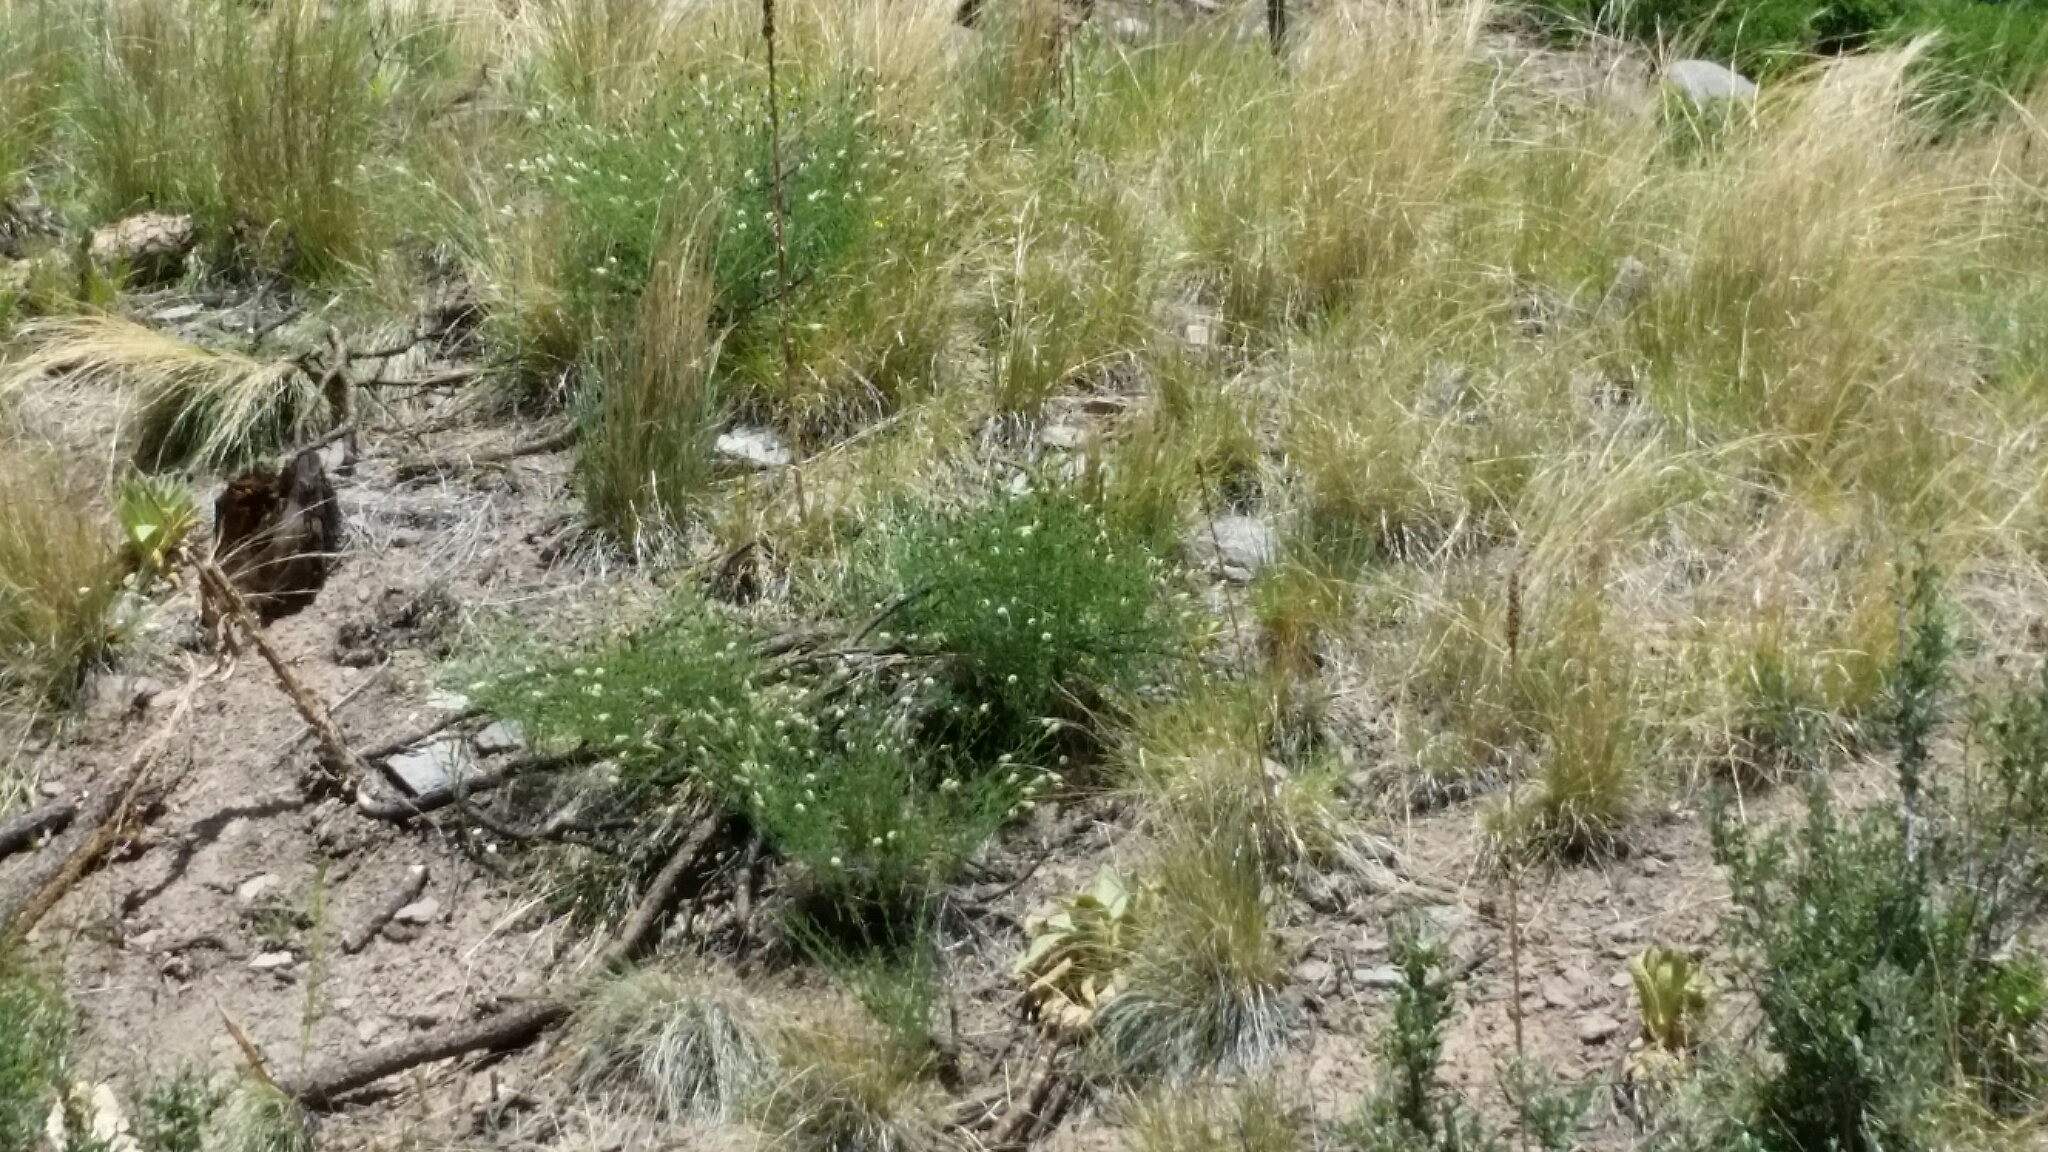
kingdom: Plantae
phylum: Tracheophyta
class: Magnoliopsida
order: Fabales
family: Fabaceae
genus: Dalea
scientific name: Dalea candida
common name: White prairie-clover
